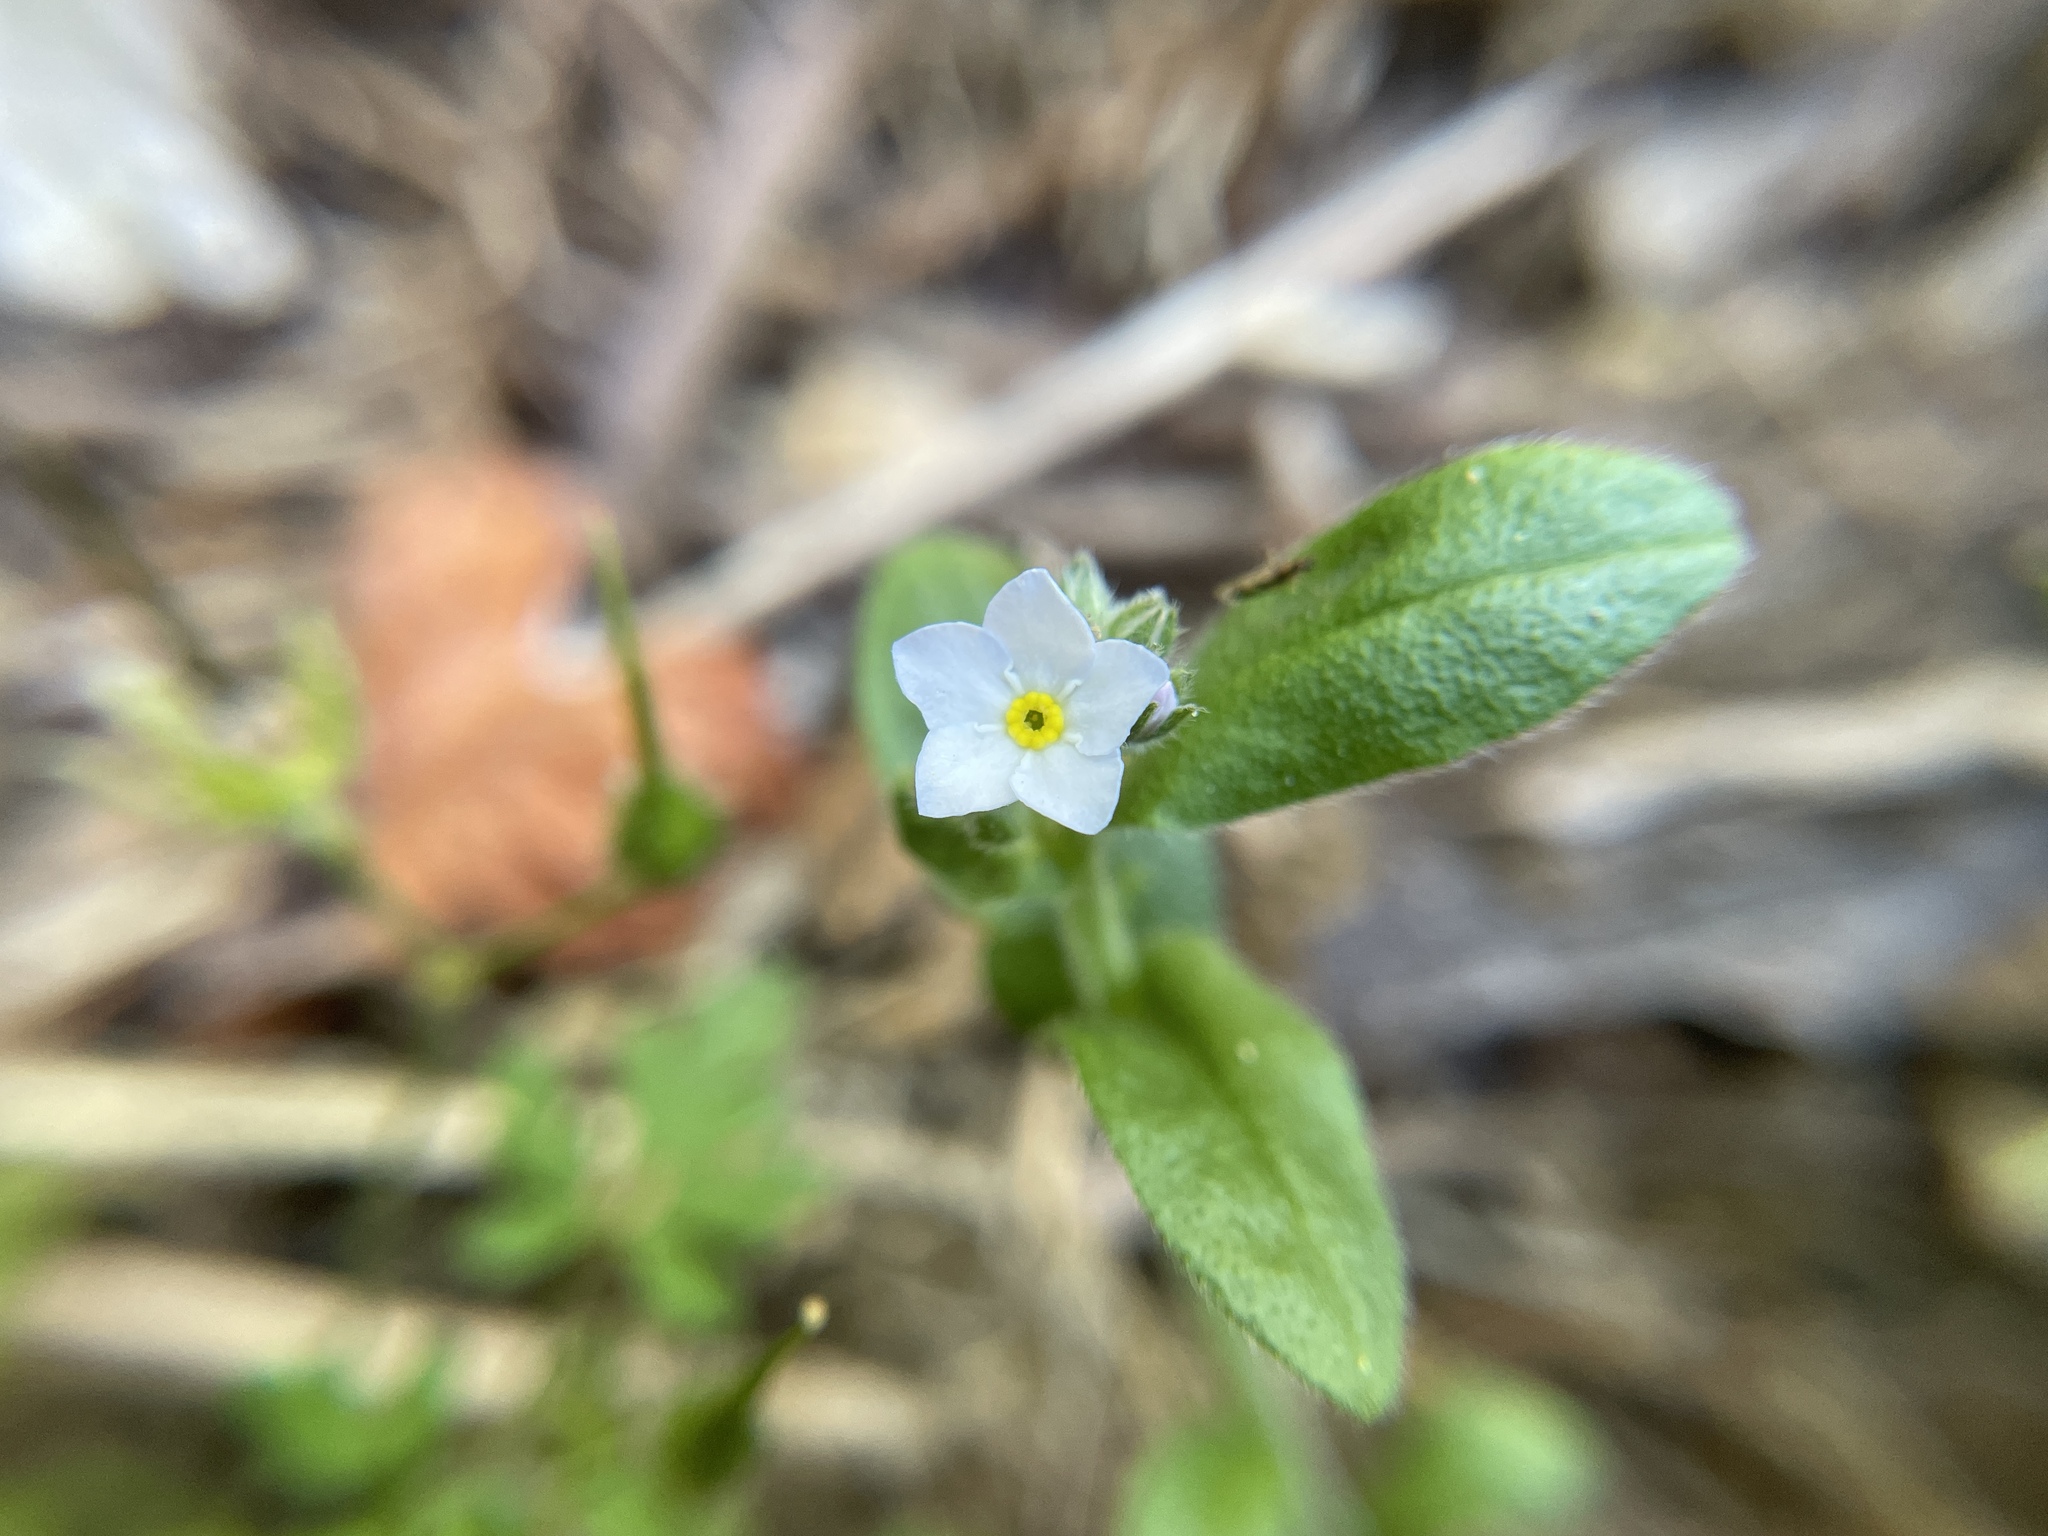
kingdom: Plantae
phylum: Tracheophyta
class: Magnoliopsida
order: Boraginales
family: Boraginaceae
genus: Myosotis
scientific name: Myosotis latifolia
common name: Broadleaf forget-me-not
